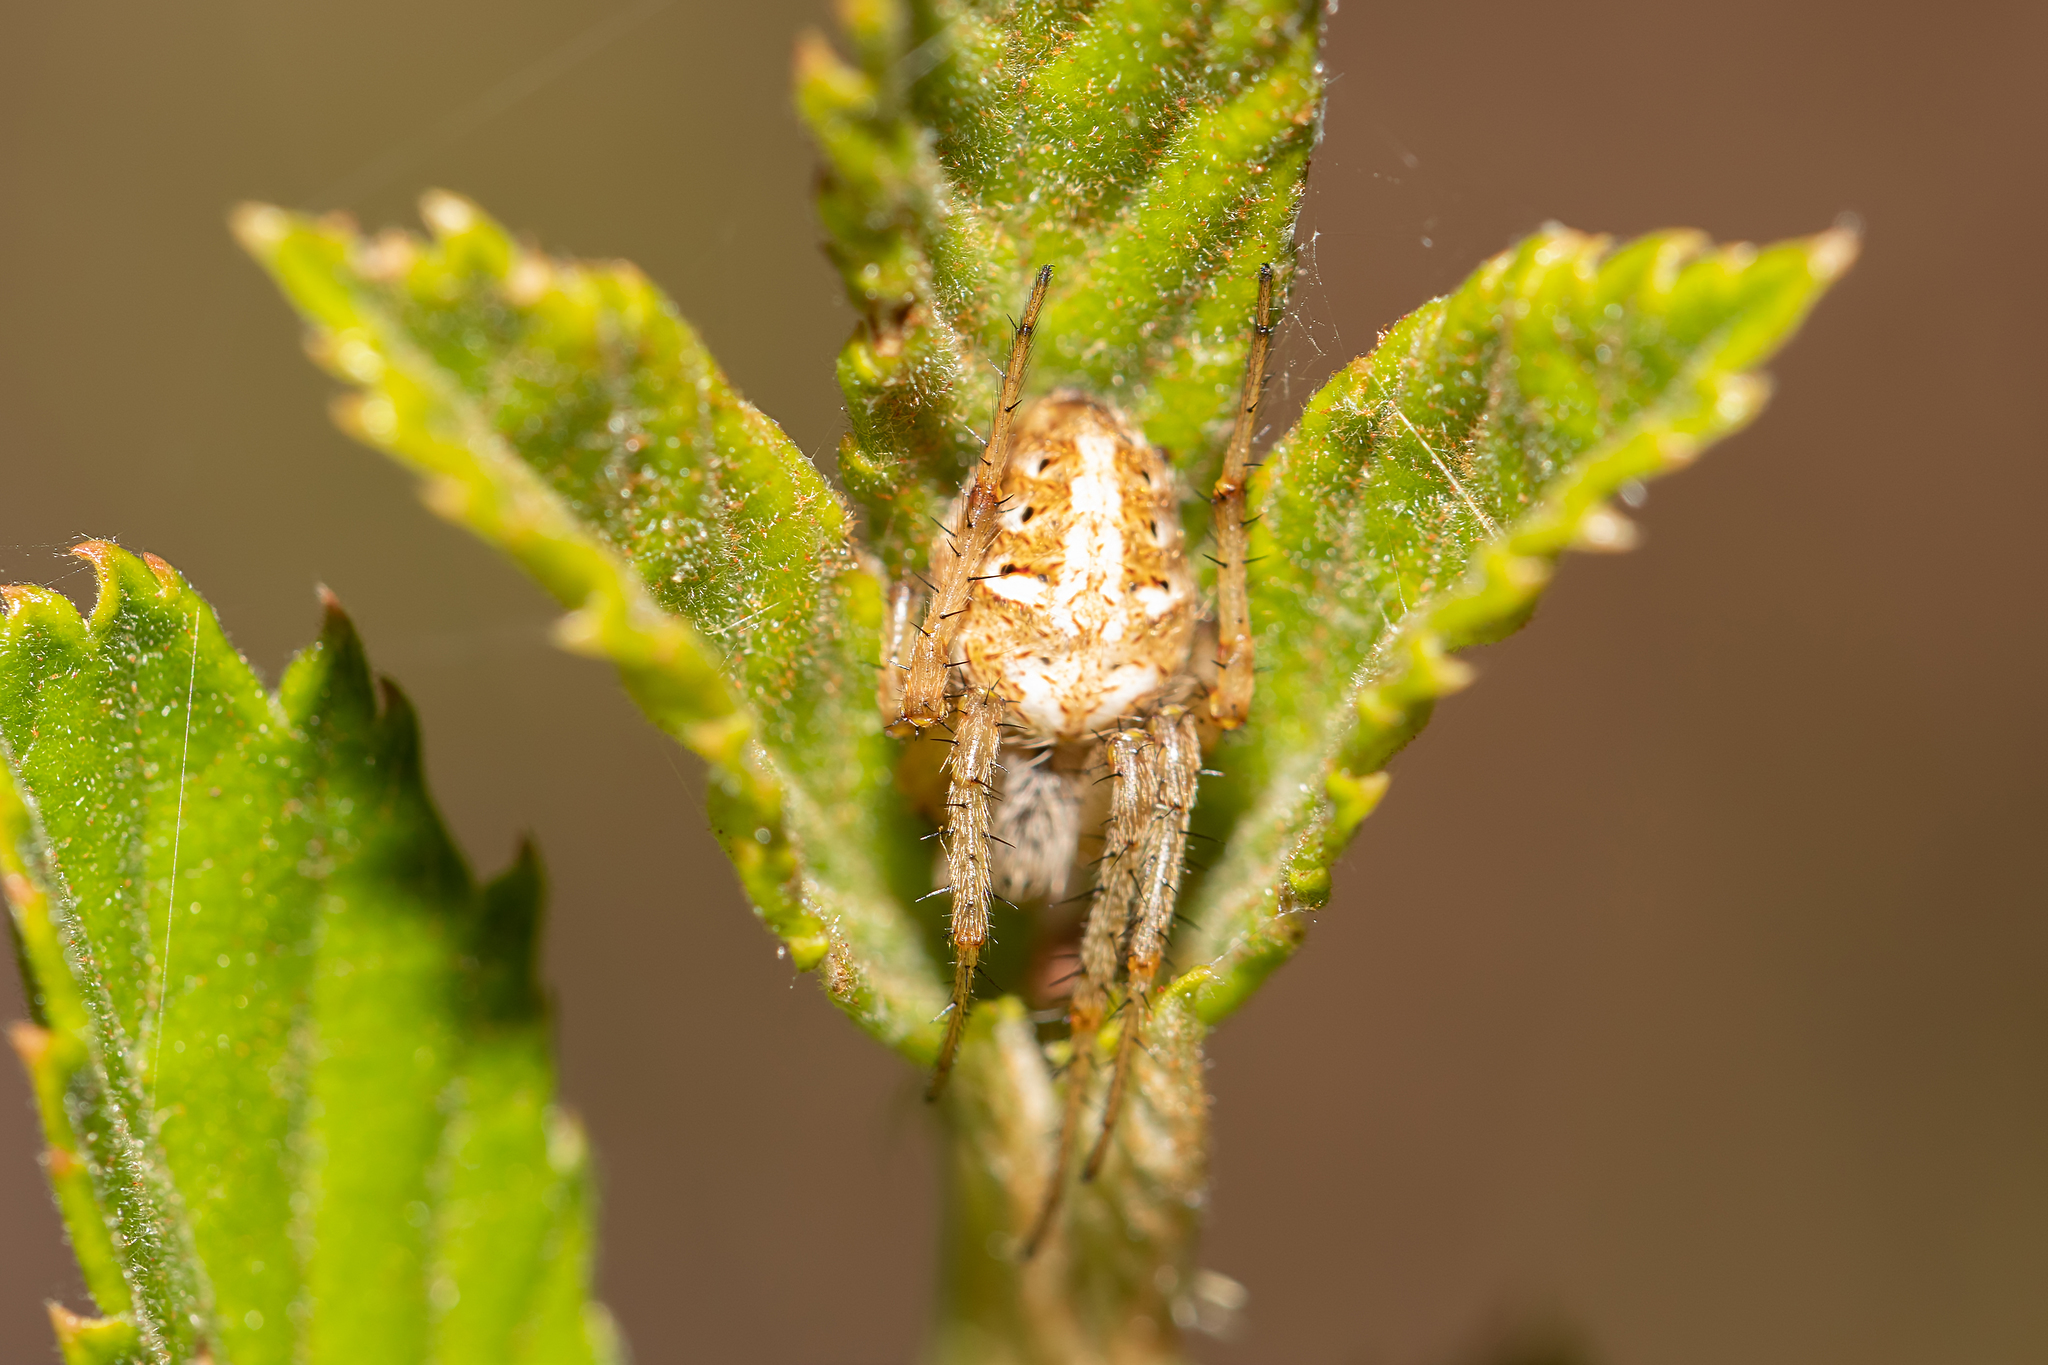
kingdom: Animalia
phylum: Arthropoda
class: Arachnida
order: Araneae
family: Araneidae
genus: Neoscona
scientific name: Neoscona arabesca
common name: Orb weavers
